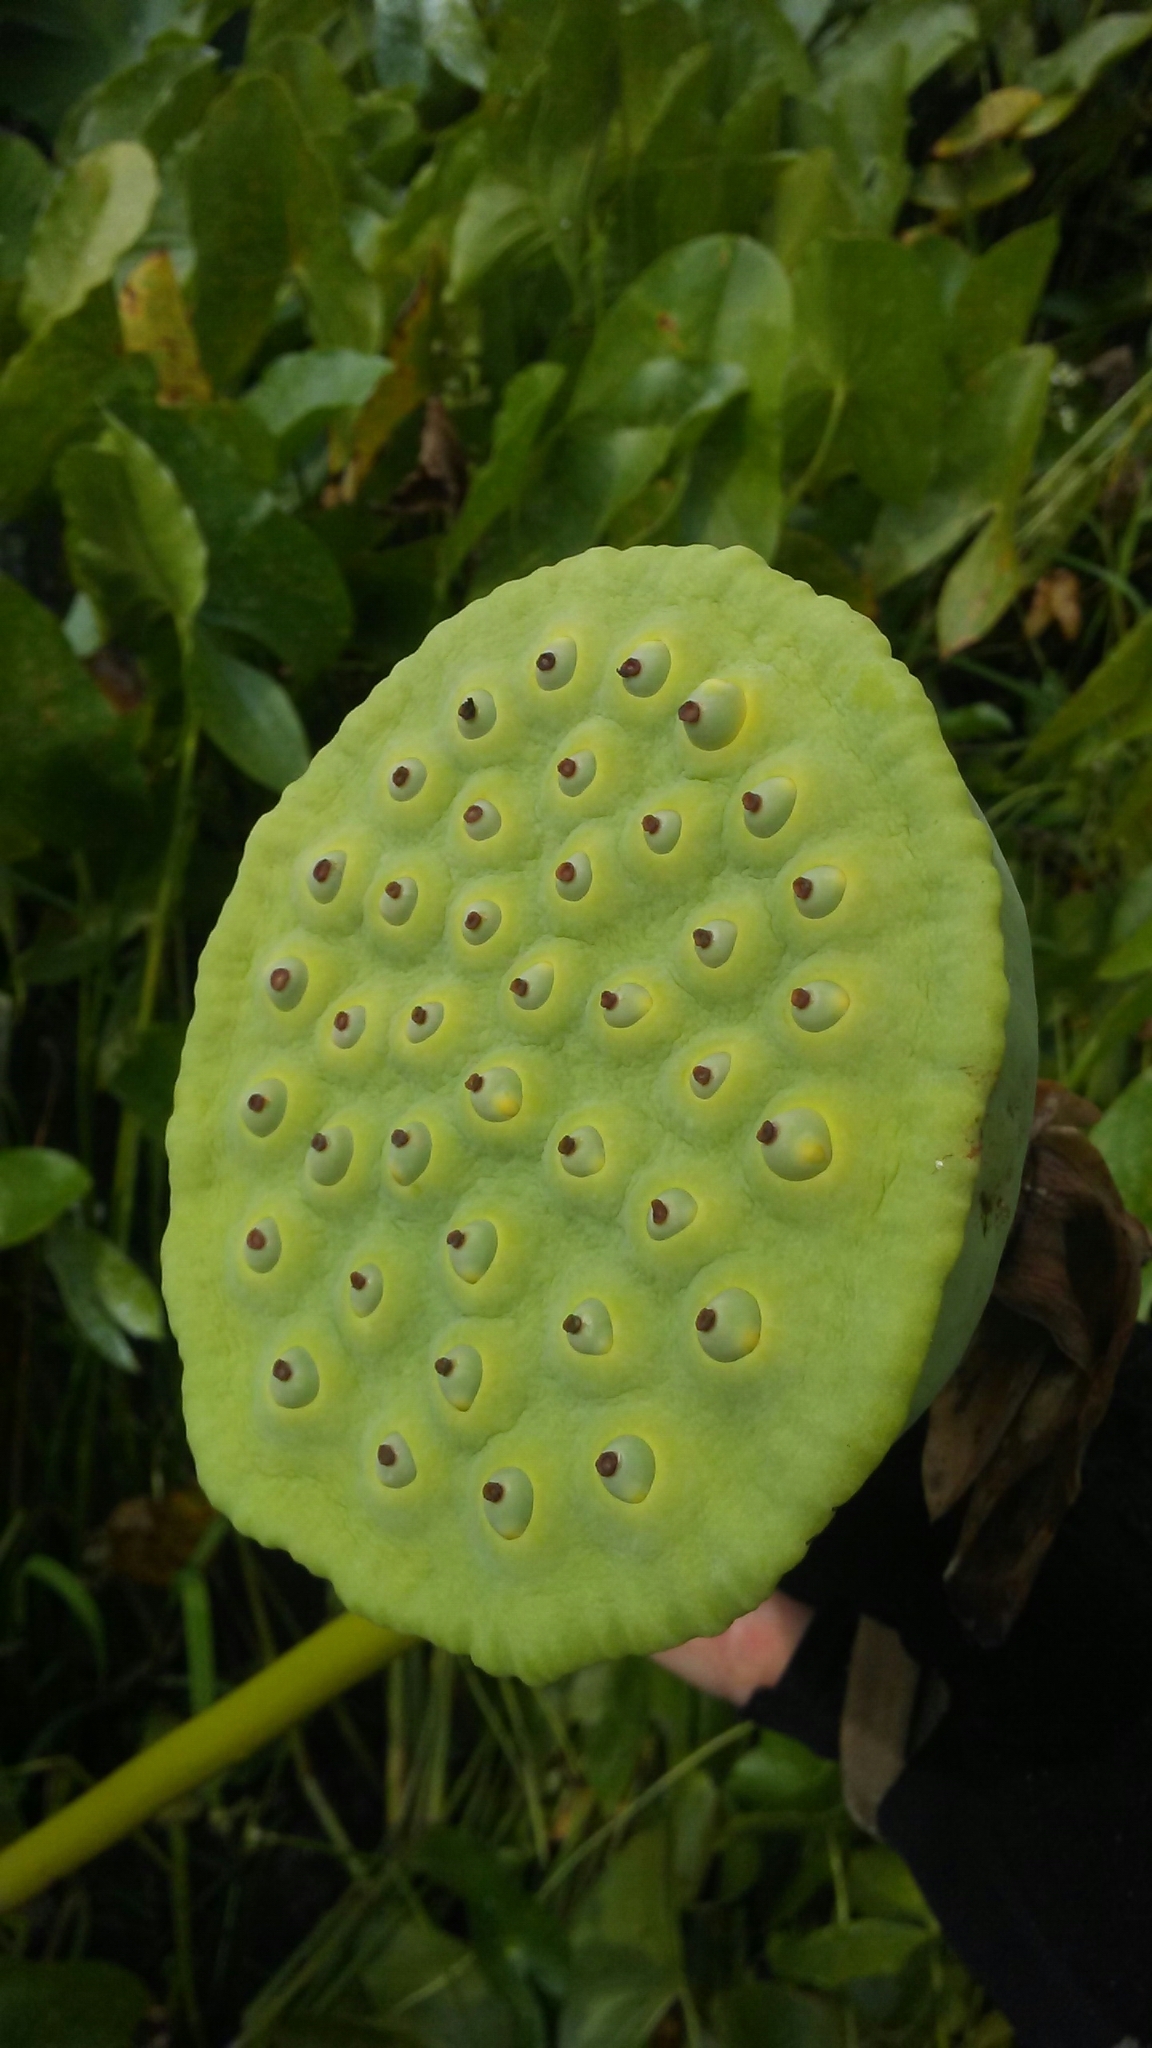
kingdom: Plantae
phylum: Tracheophyta
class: Magnoliopsida
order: Proteales
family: Nelumbonaceae
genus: Nelumbo
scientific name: Nelumbo lutea
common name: American lotus
